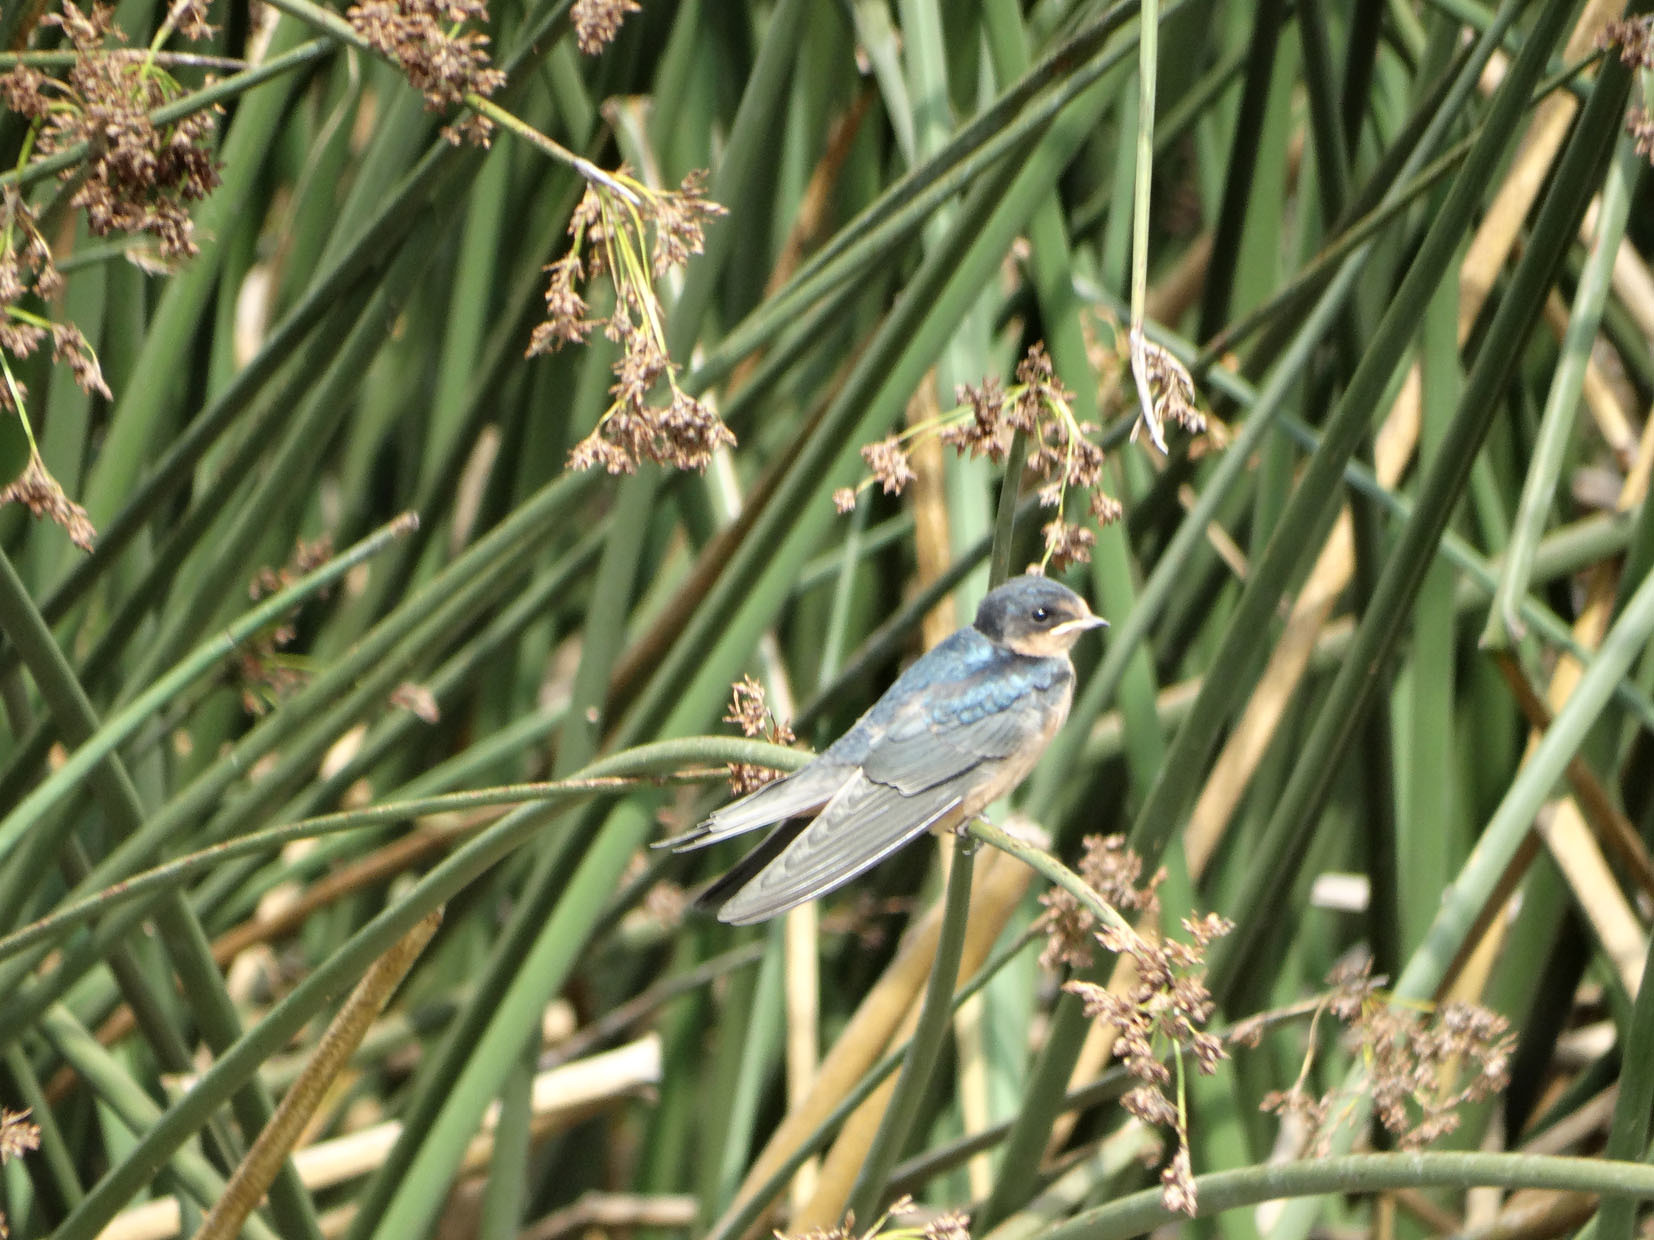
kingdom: Animalia
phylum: Chordata
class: Aves
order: Passeriformes
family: Hirundinidae
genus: Hirundo
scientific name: Hirundo rustica
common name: Barn swallow
